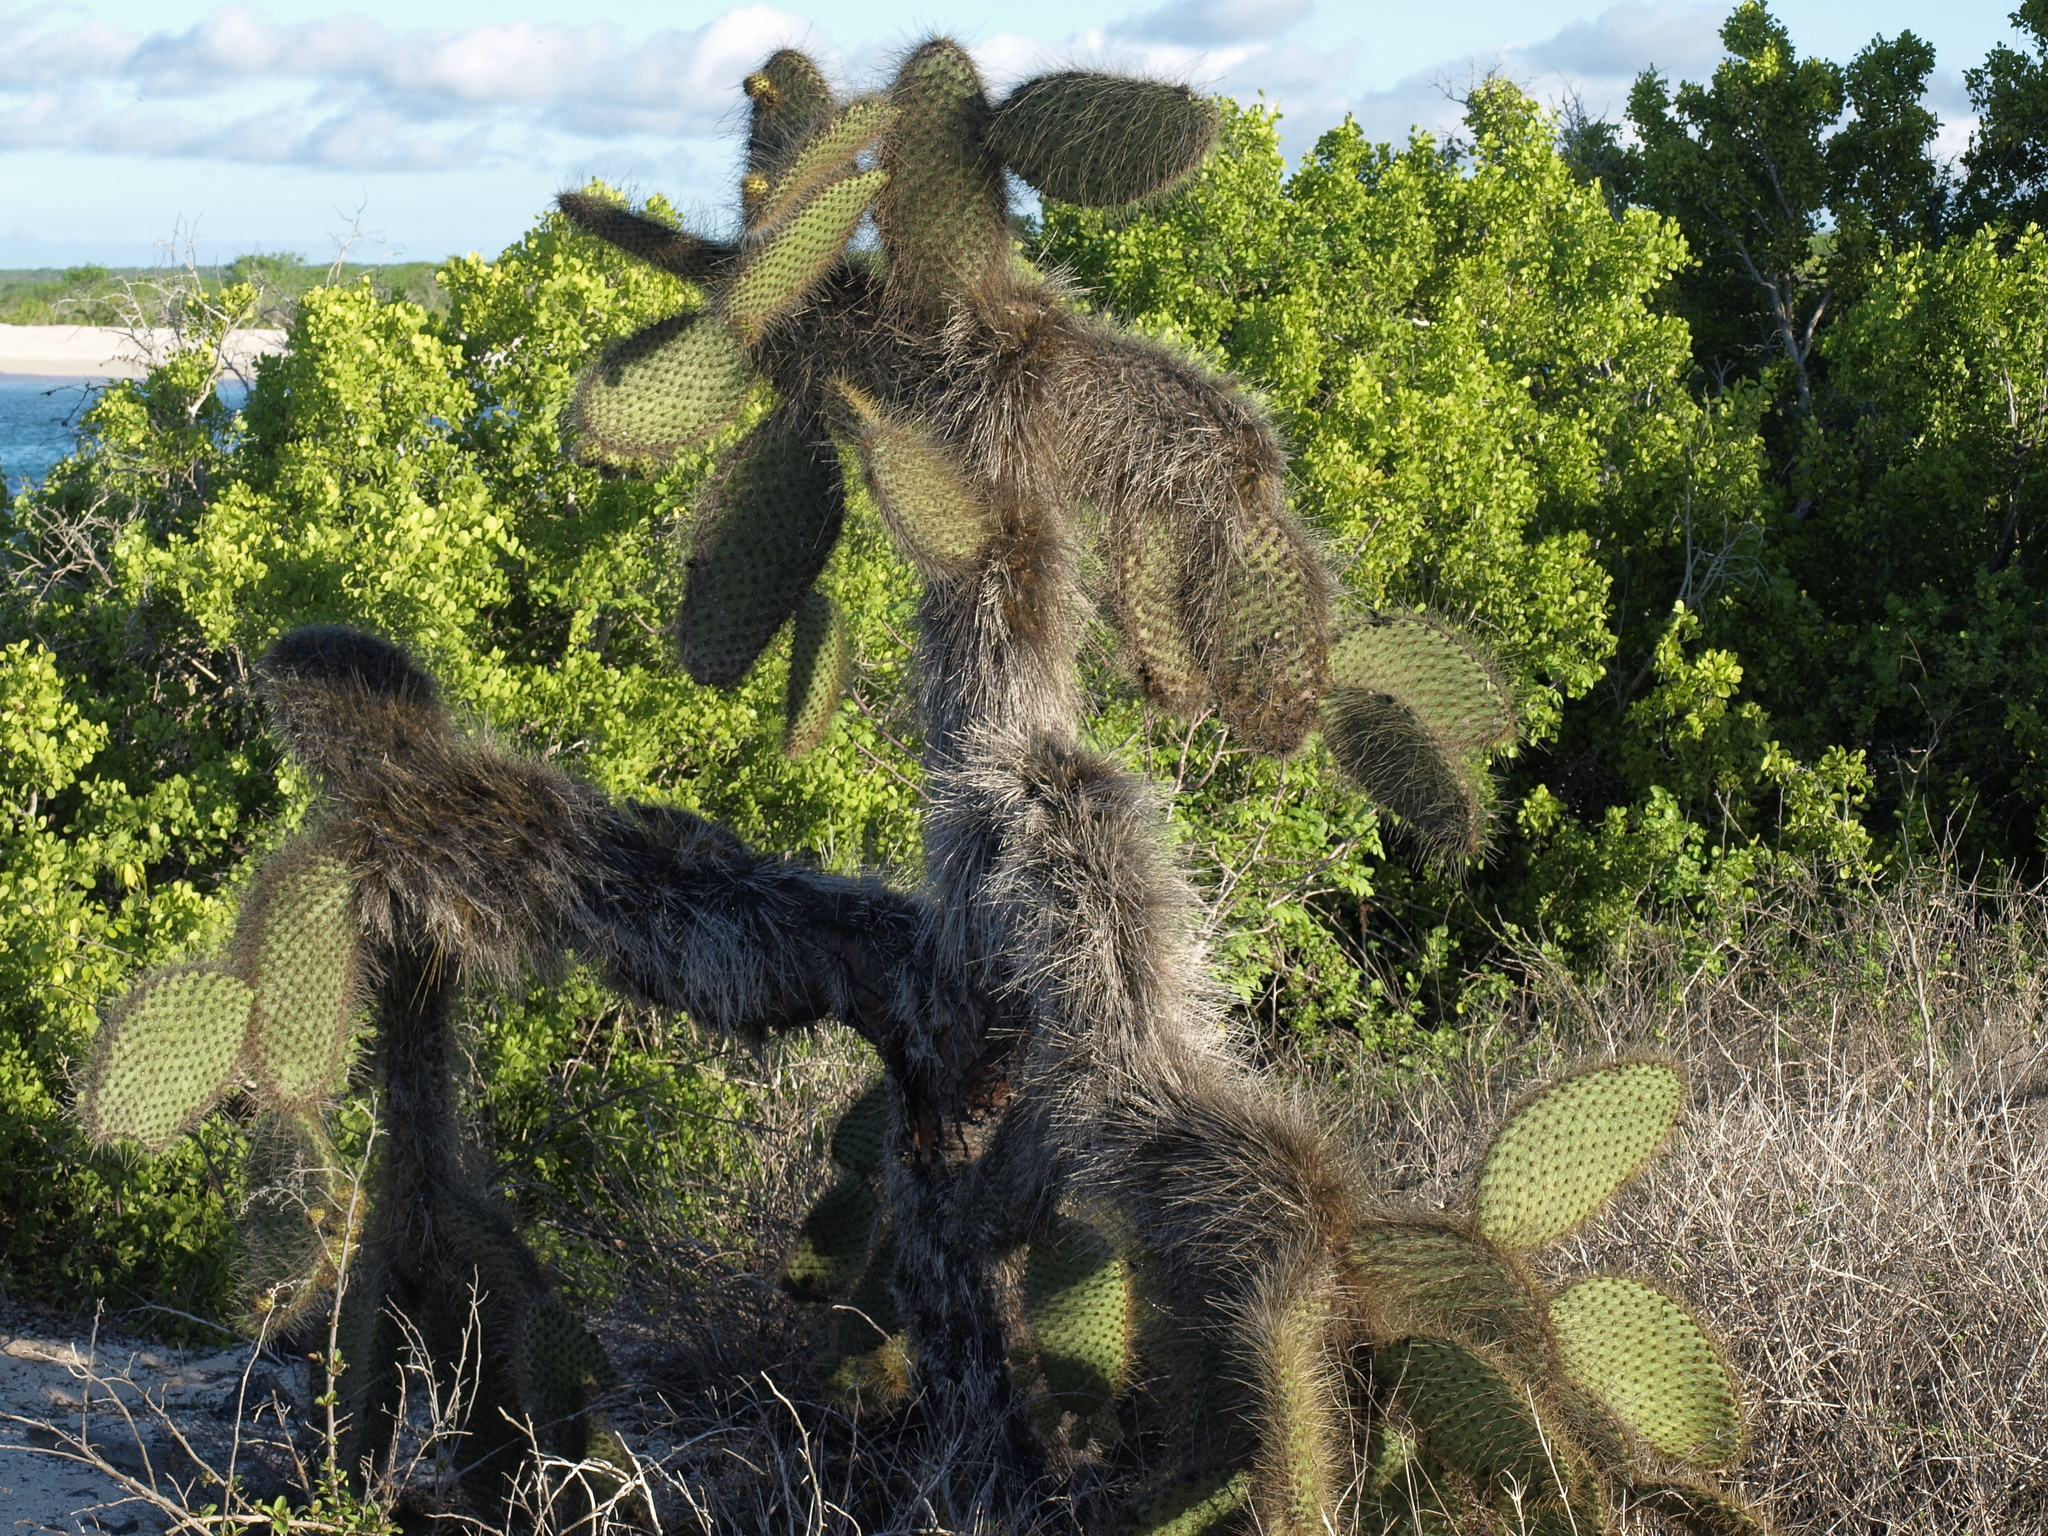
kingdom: Plantae
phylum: Tracheophyta
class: Magnoliopsida
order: Caryophyllales
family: Cactaceae
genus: Opuntia
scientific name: Opuntia galapageia
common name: Galápagos prickly pear
